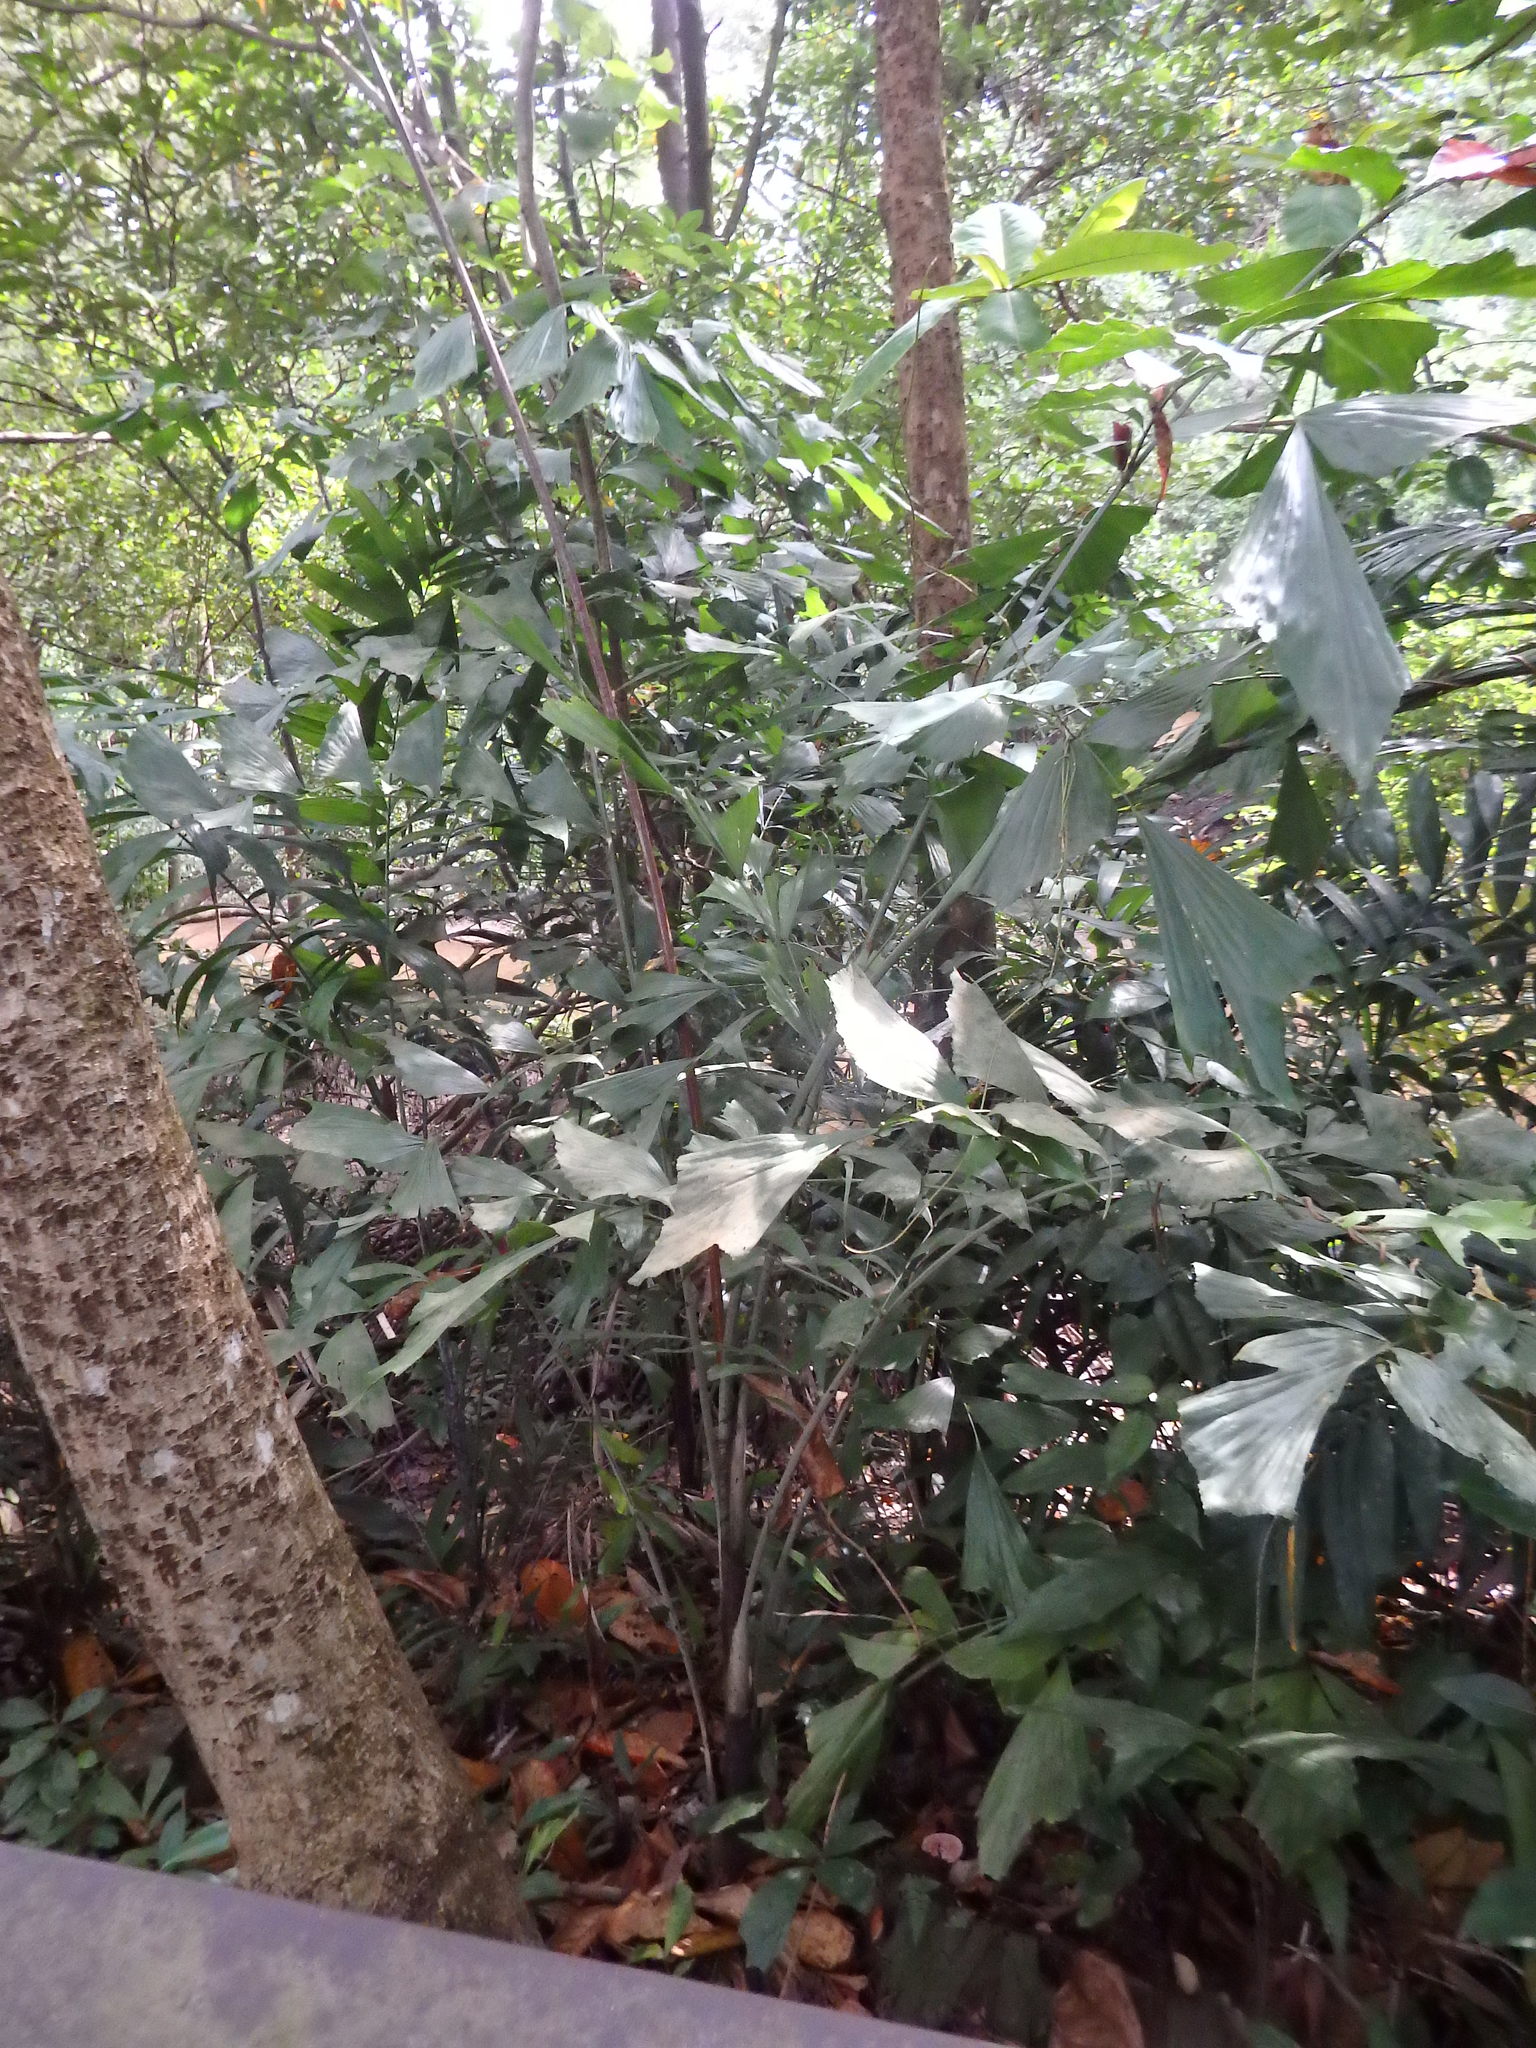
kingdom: Plantae
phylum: Tracheophyta
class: Liliopsida
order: Arecales
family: Arecaceae
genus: Caryota
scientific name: Caryota mitis
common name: Burmese fishtail palm
